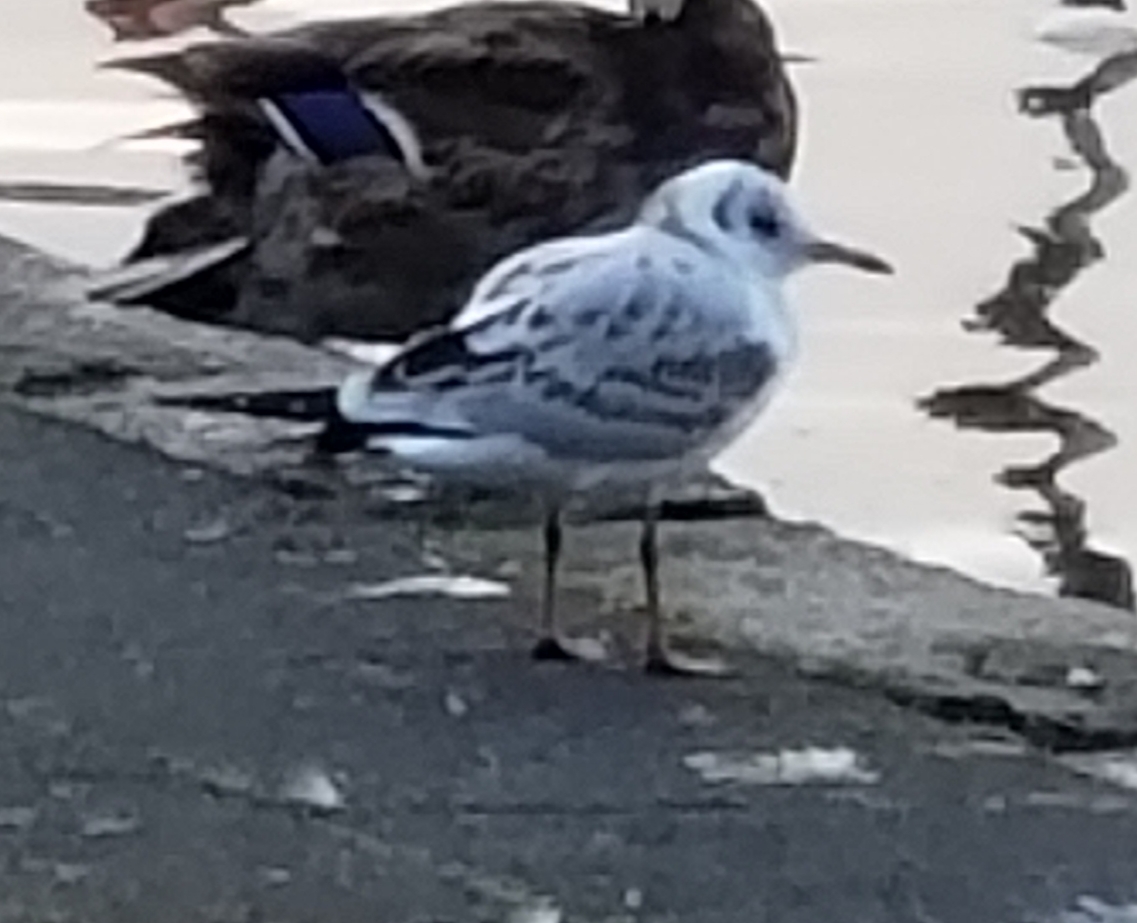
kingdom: Animalia
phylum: Chordata
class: Aves
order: Charadriiformes
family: Laridae
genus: Chroicocephalus
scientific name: Chroicocephalus ridibundus
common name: Black-headed gull
